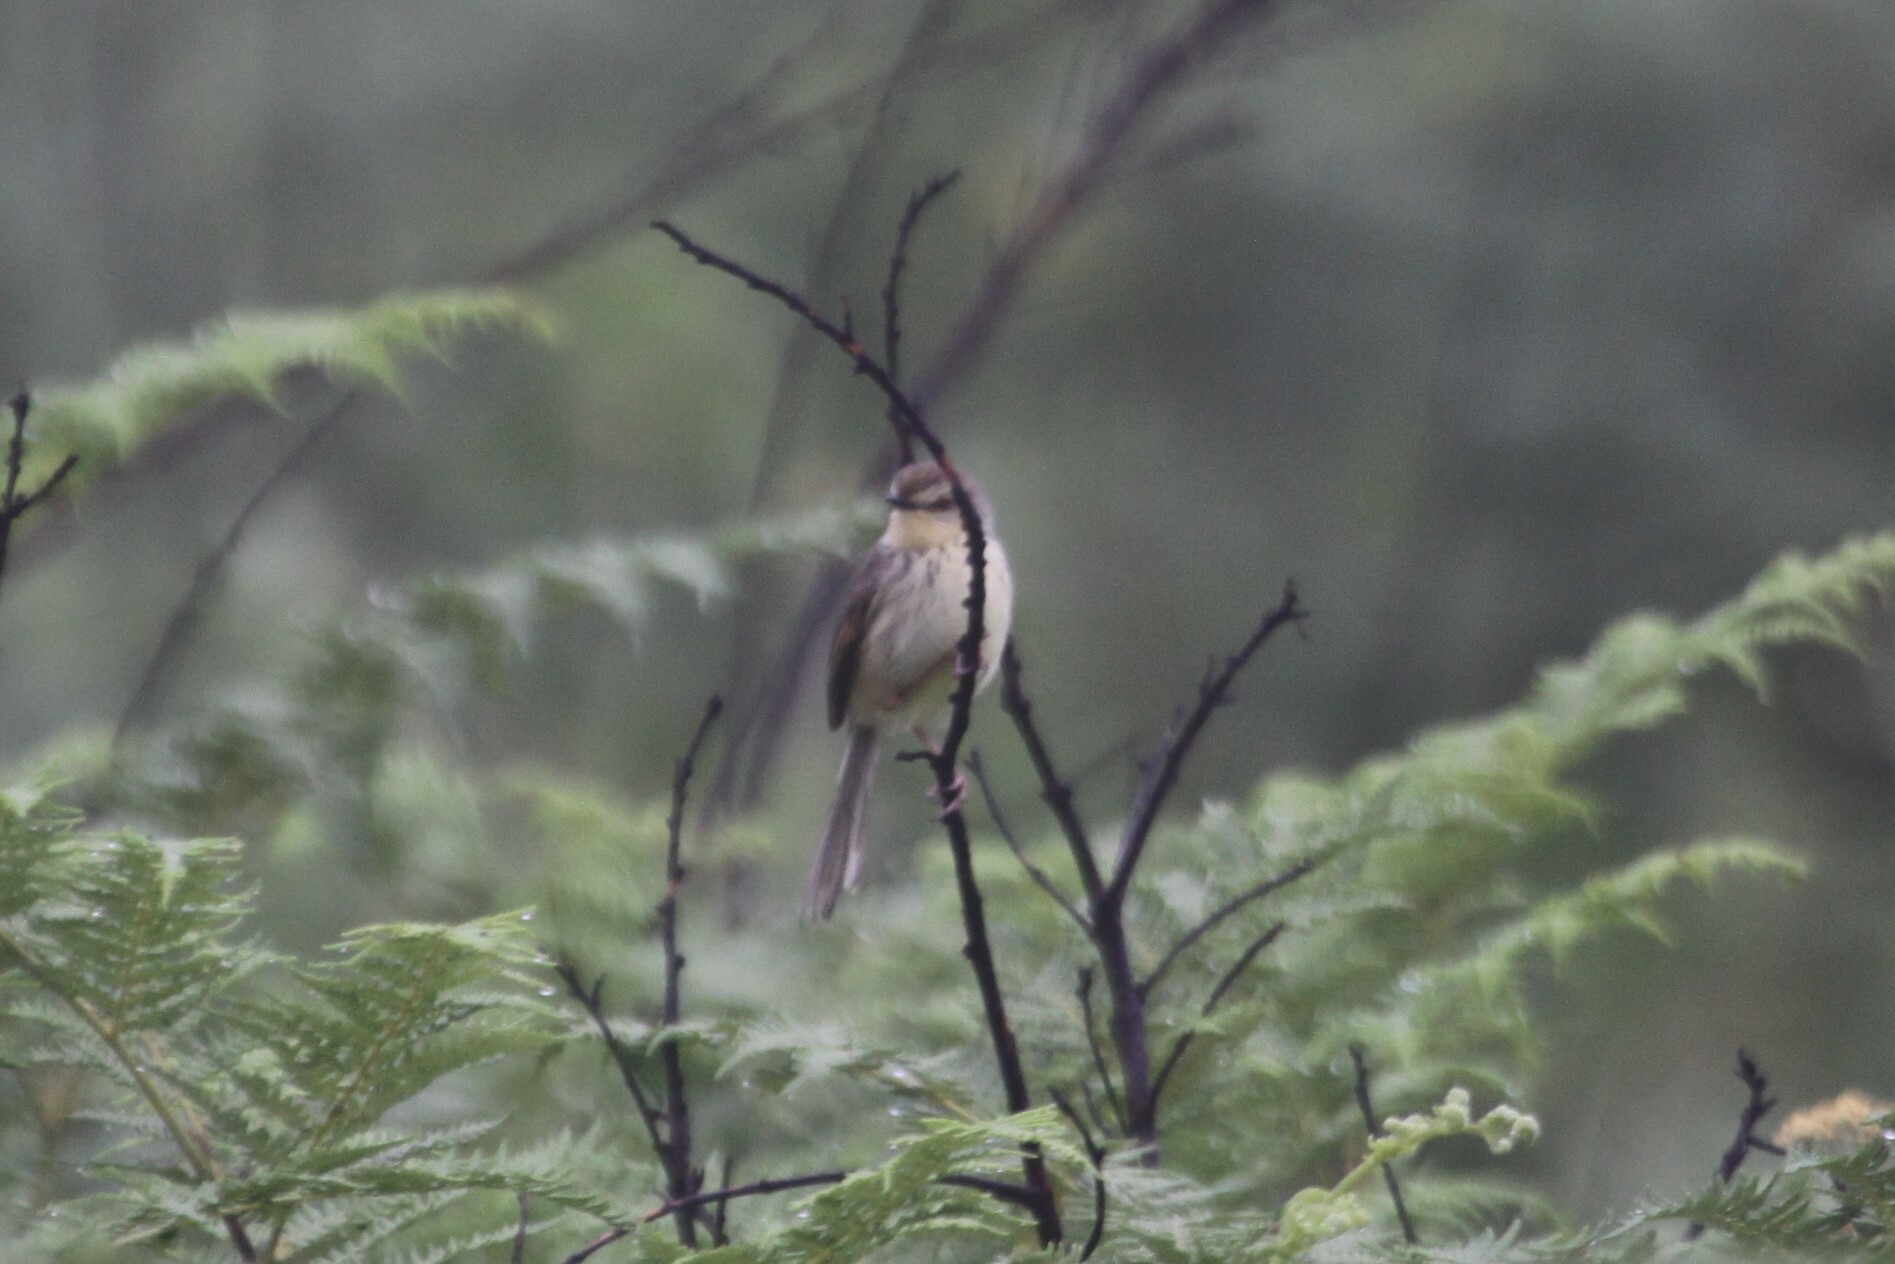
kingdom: Animalia
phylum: Chordata
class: Aves
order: Passeriformes
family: Cisticolidae
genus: Prinia
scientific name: Prinia hypoxantha
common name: Drakensberg prinia
